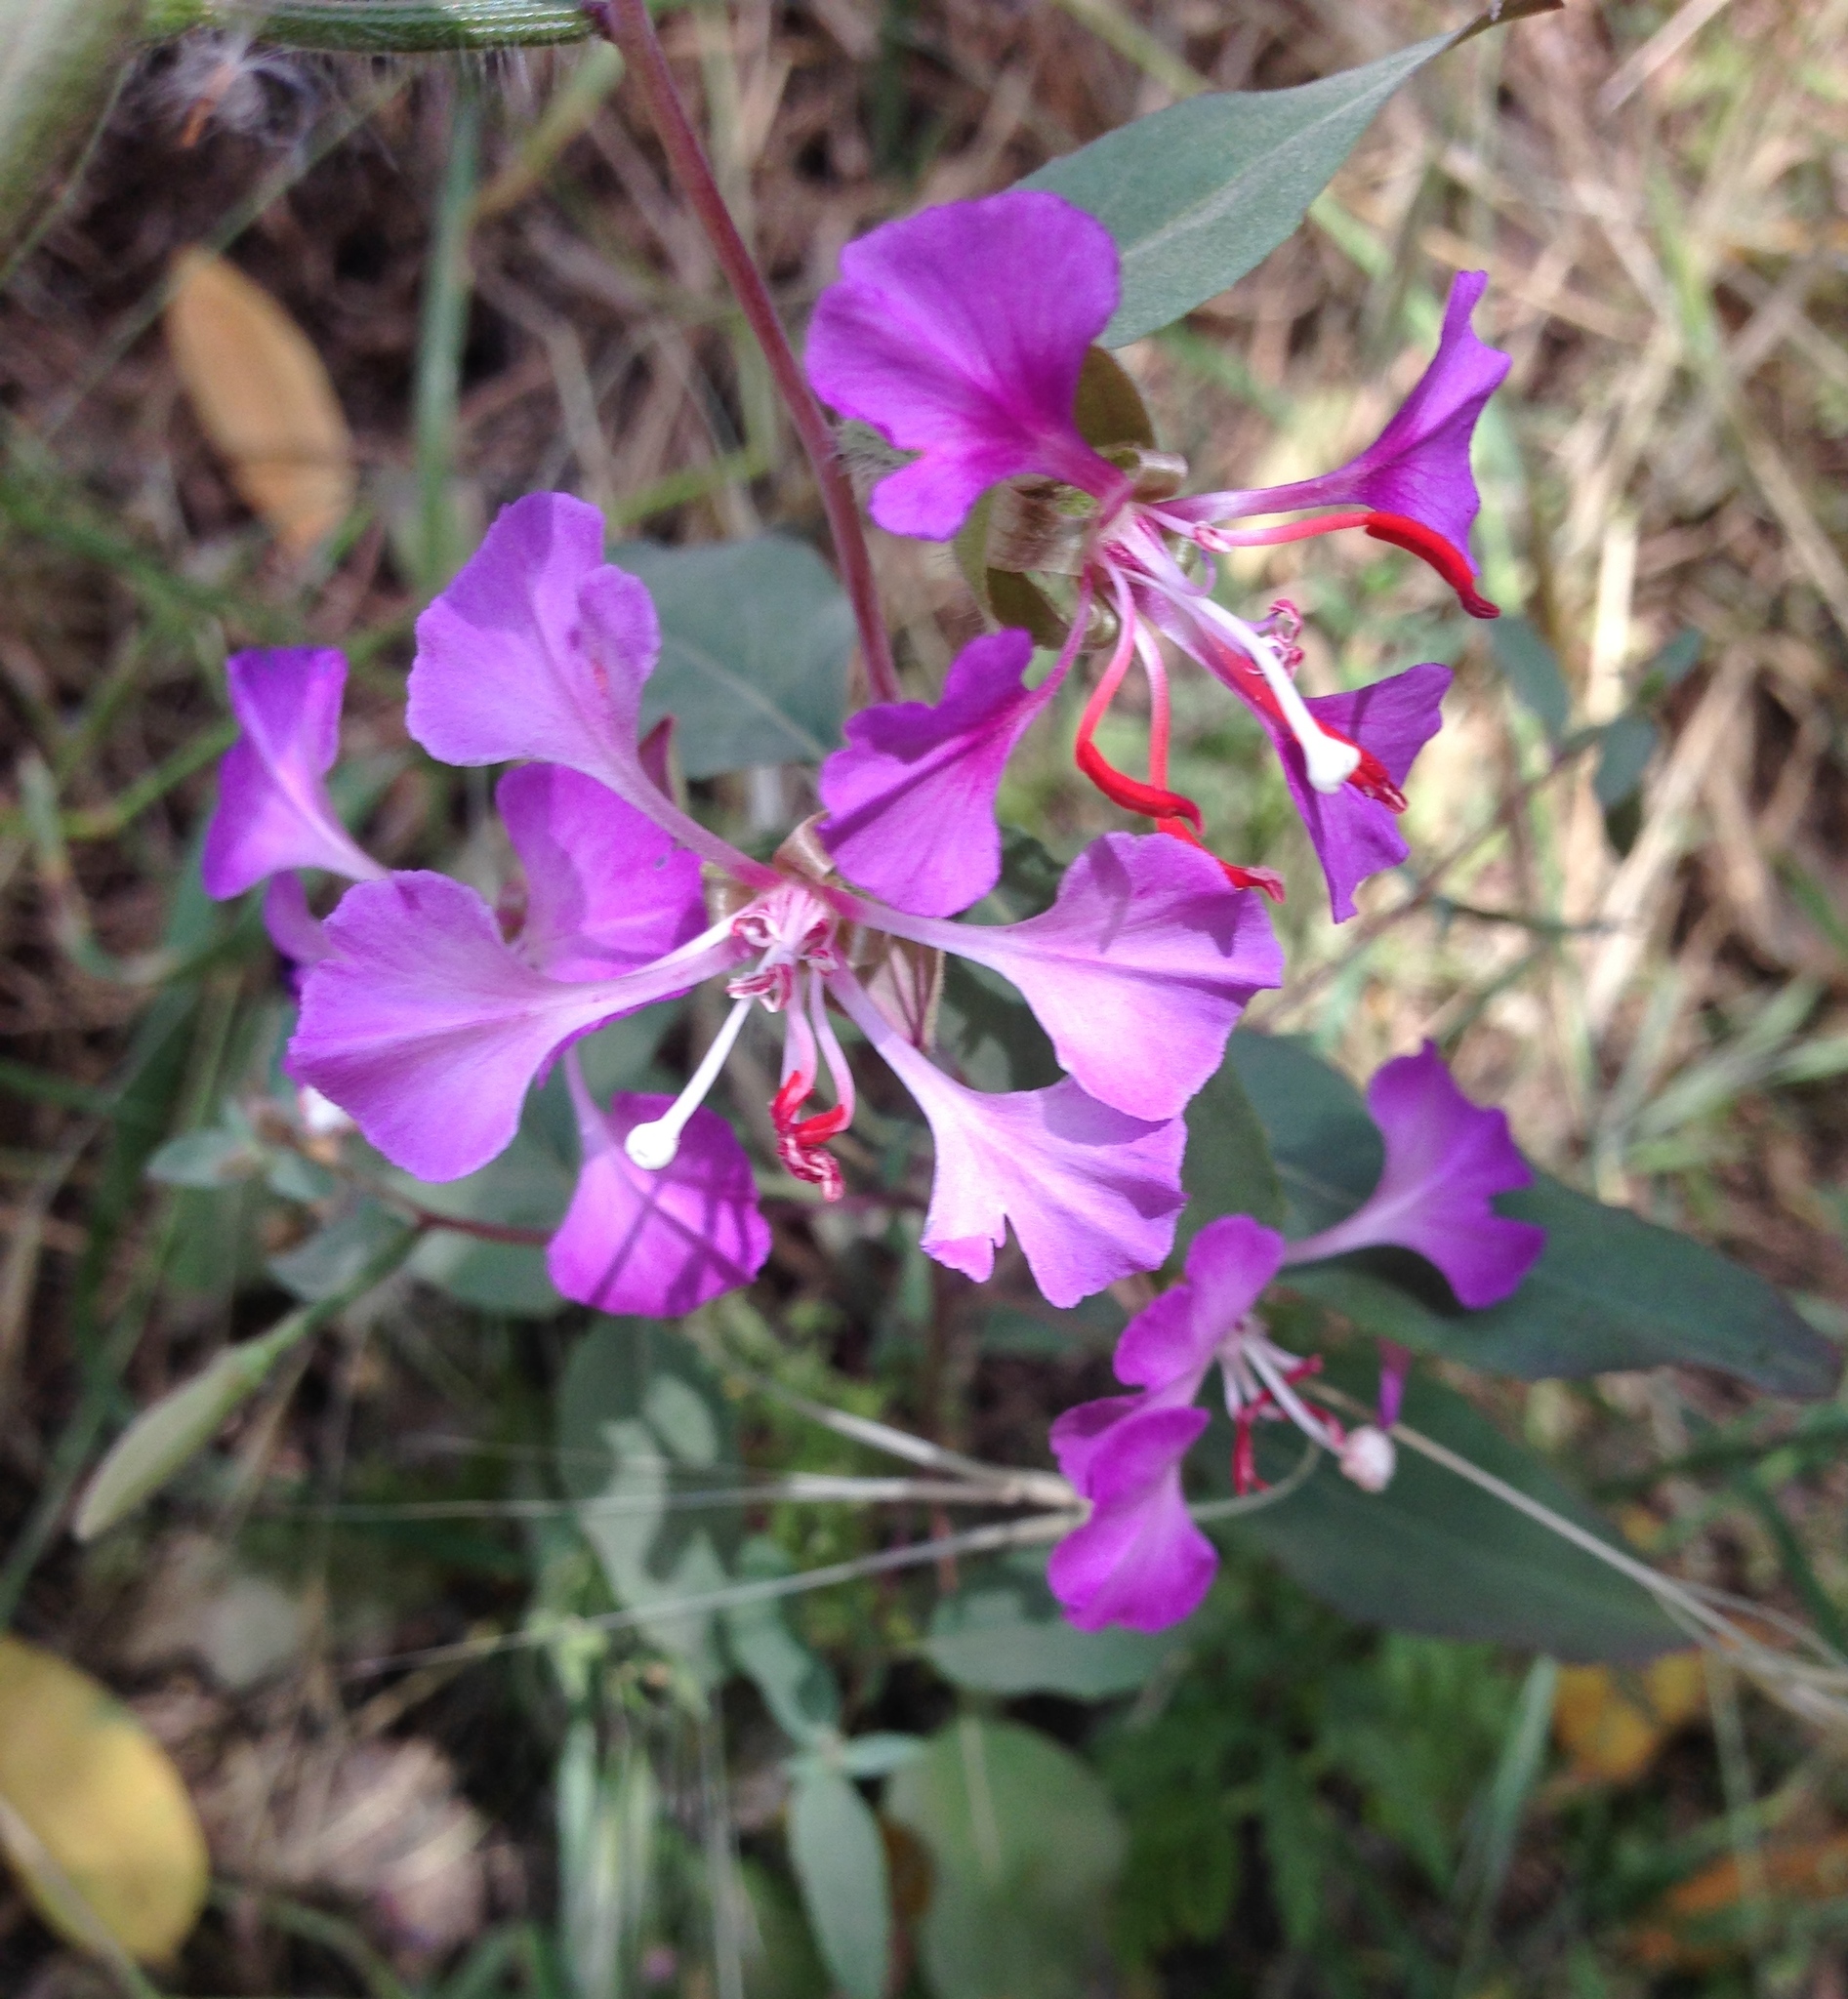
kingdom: Plantae
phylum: Tracheophyta
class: Magnoliopsida
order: Myrtales
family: Onagraceae
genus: Clarkia
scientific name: Clarkia unguiculata
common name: Clarkia
